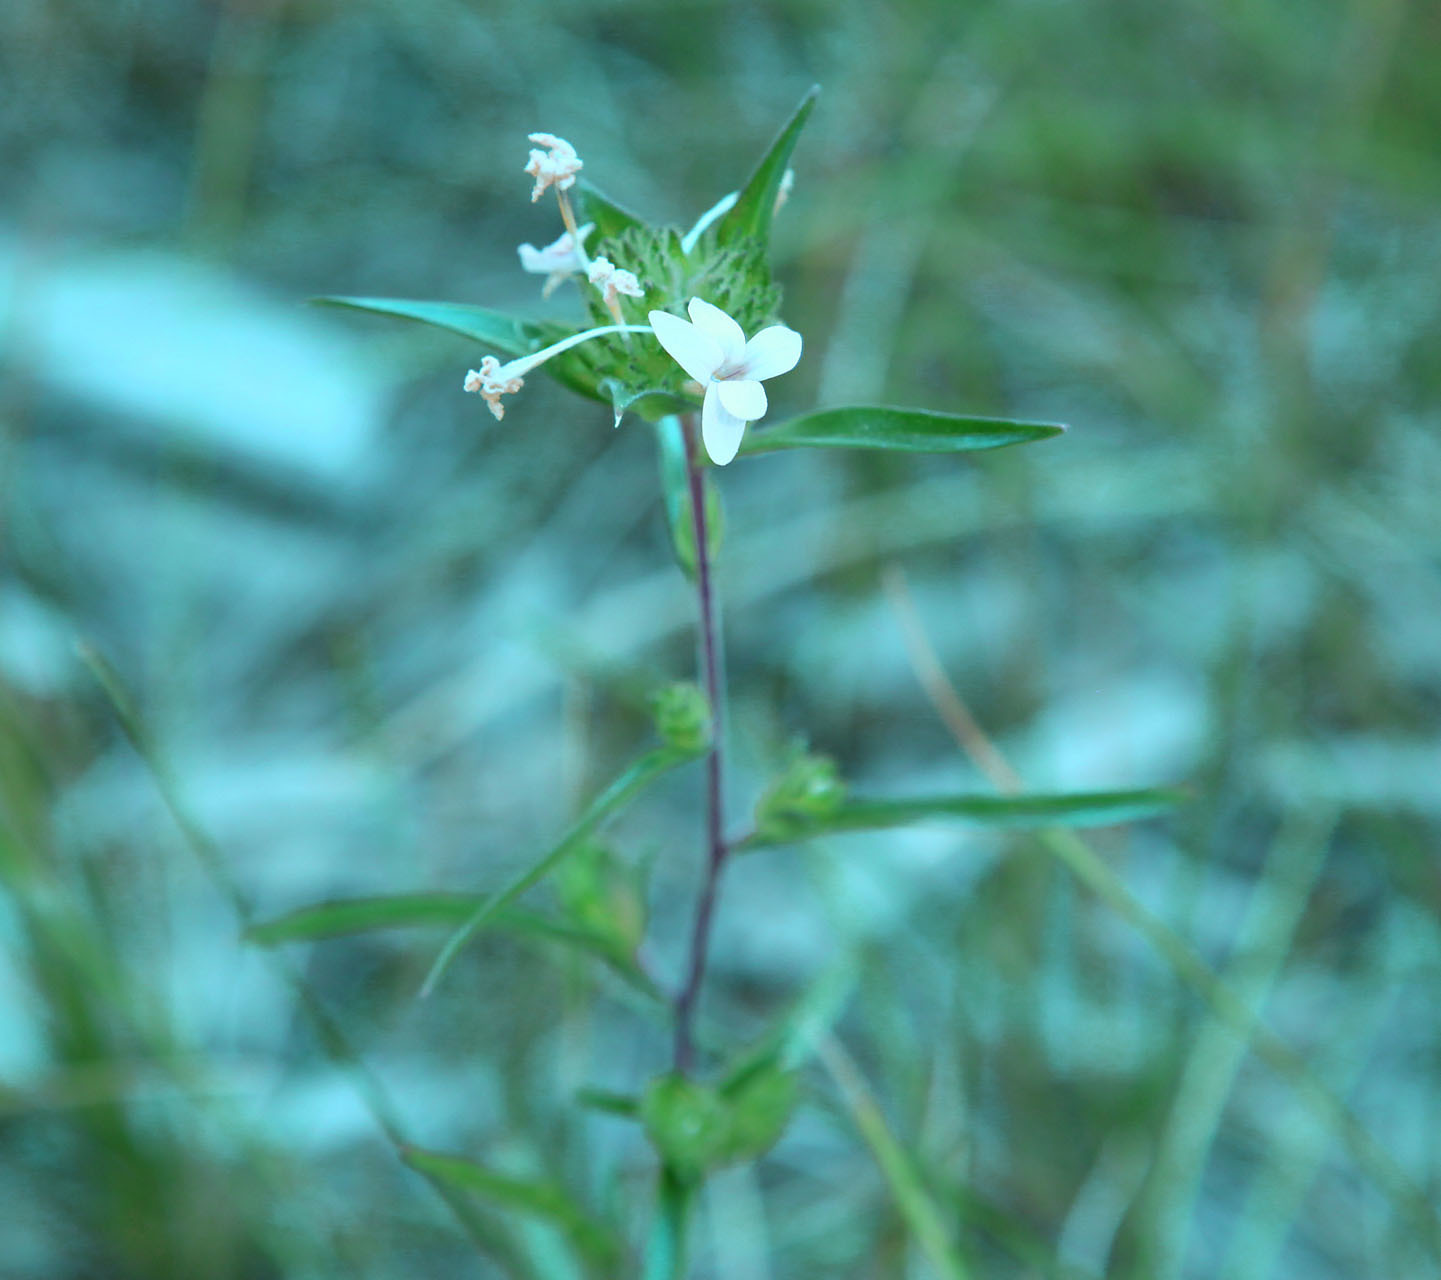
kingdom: Plantae
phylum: Tracheophyta
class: Magnoliopsida
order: Ericales
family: Polemoniaceae
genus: Collomia
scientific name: Collomia grandiflora
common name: California strawflower
